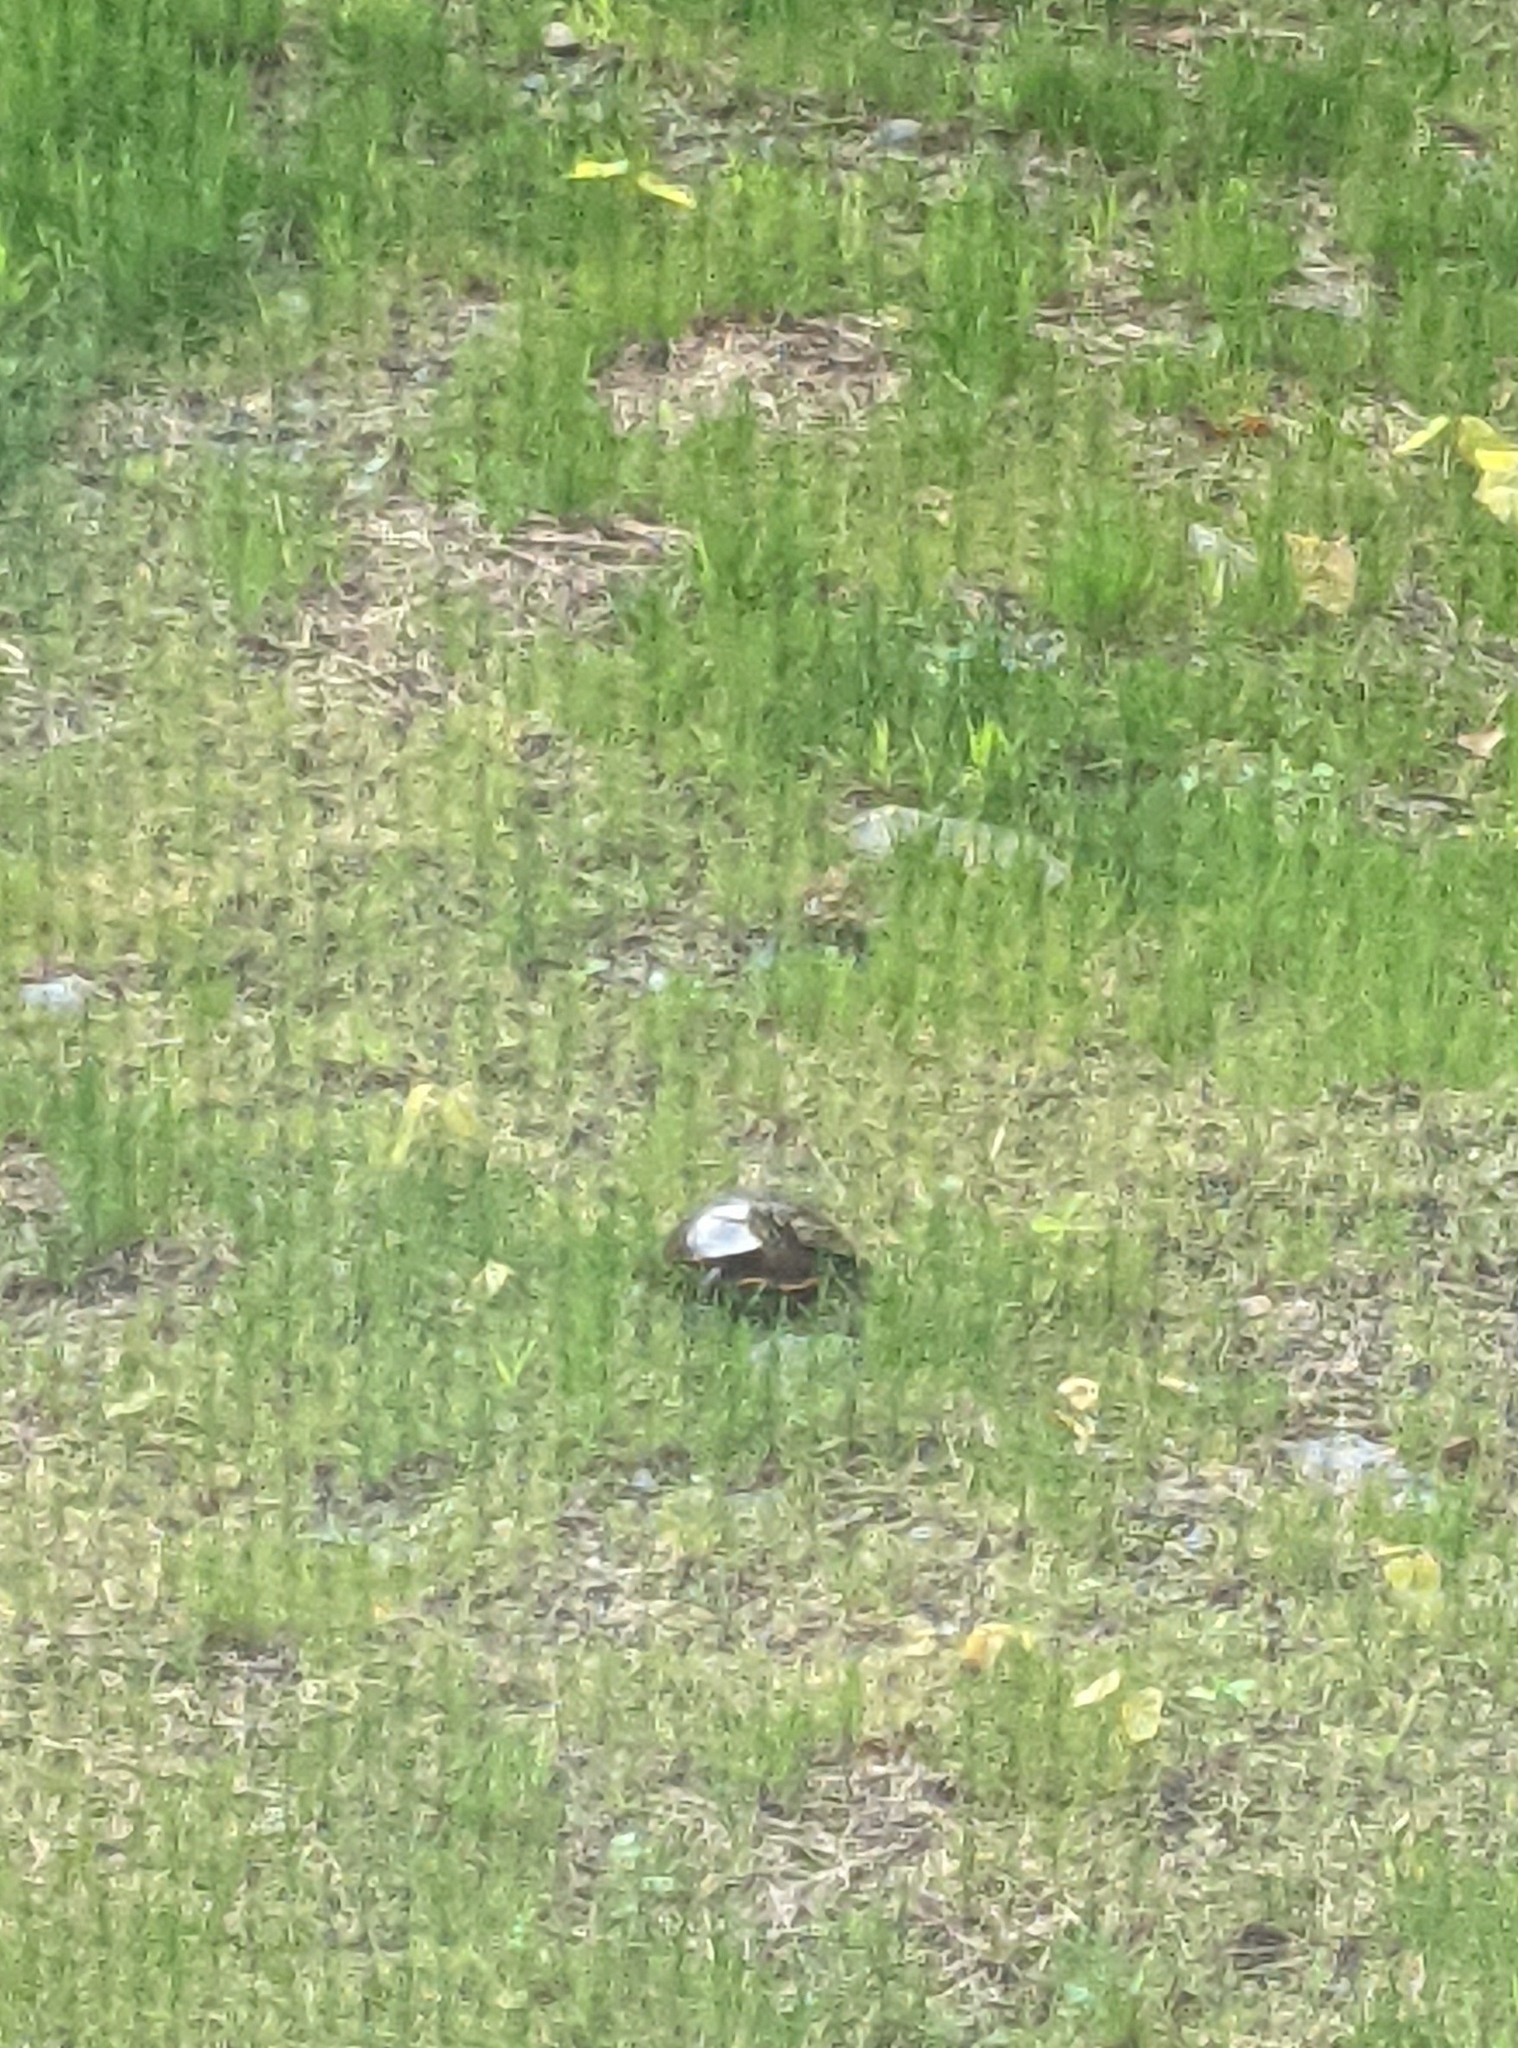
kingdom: Animalia
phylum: Chordata
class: Testudines
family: Emydidae
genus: Chrysemys
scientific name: Chrysemys picta
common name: Painted turtle
